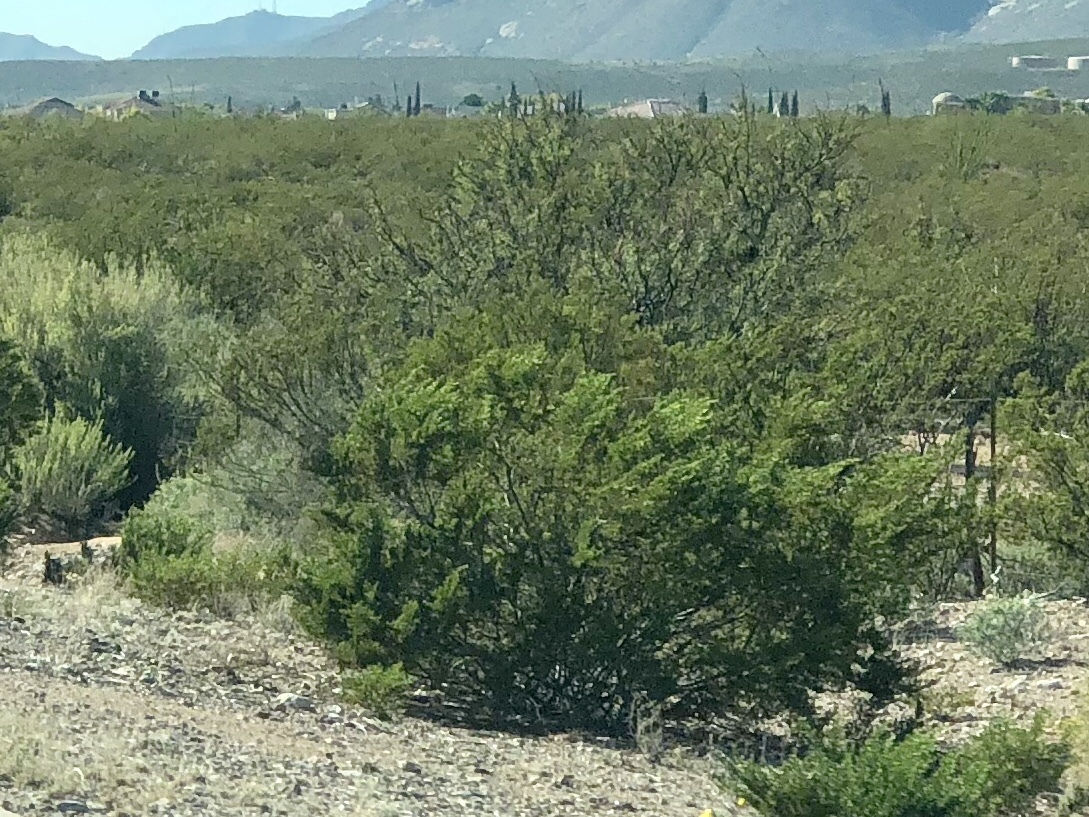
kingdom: Plantae
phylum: Tracheophyta
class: Magnoliopsida
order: Zygophyllales
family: Zygophyllaceae
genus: Larrea
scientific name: Larrea tridentata
